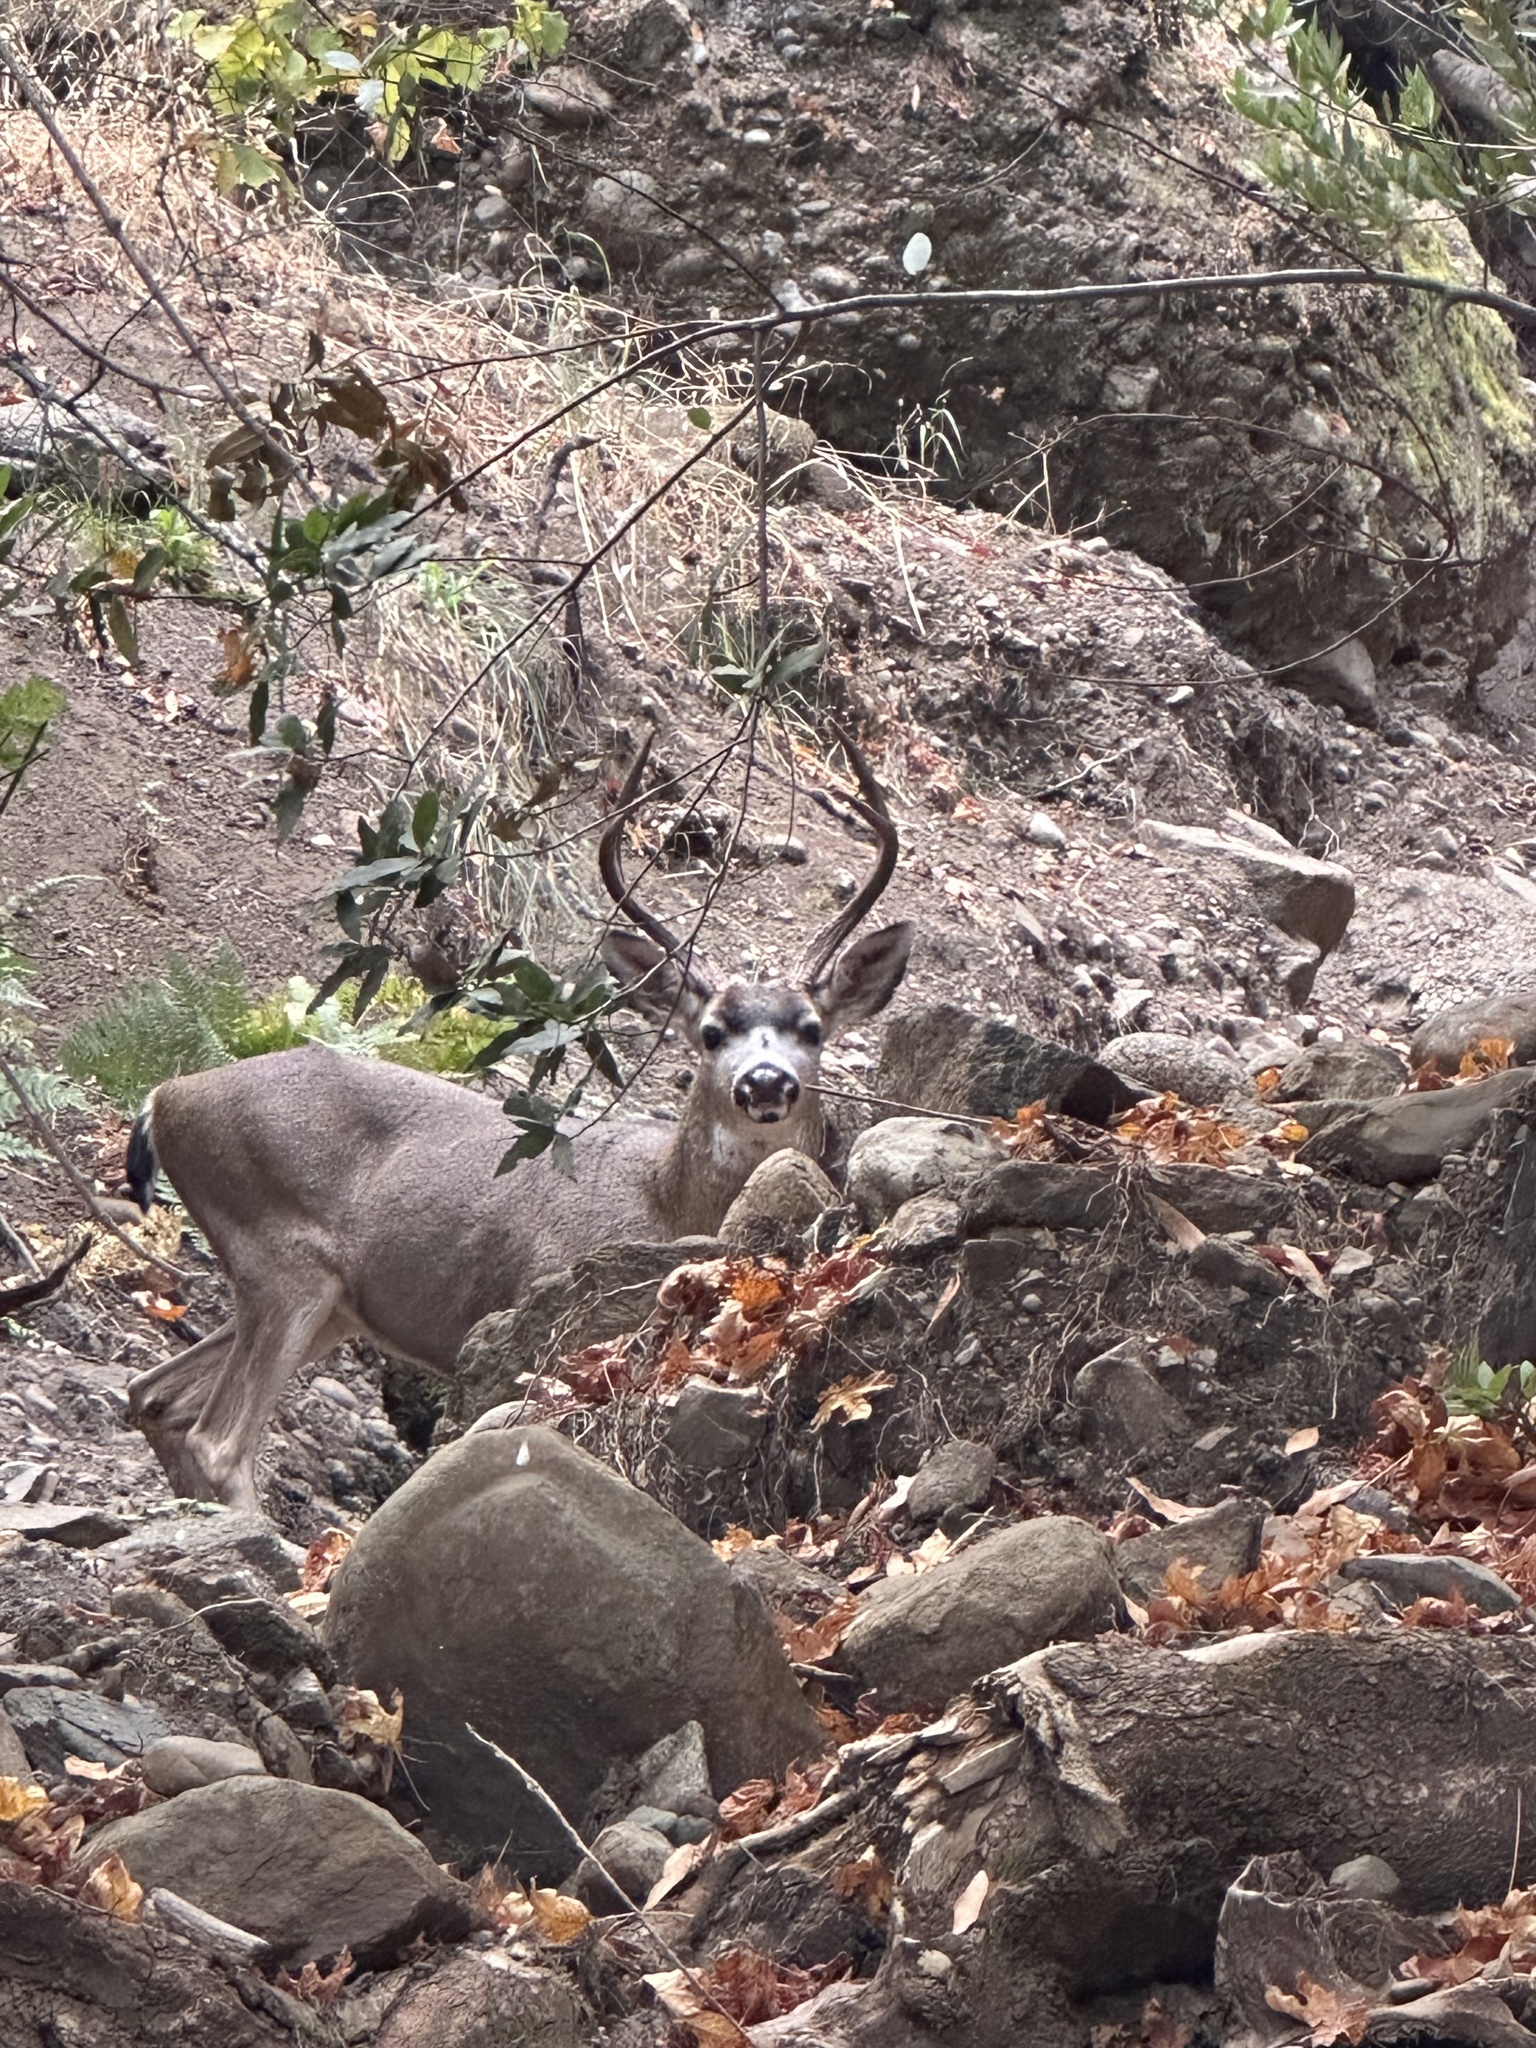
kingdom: Animalia
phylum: Chordata
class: Mammalia
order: Artiodactyla
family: Cervidae
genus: Odocoileus
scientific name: Odocoileus hemionus
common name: Mule deer
